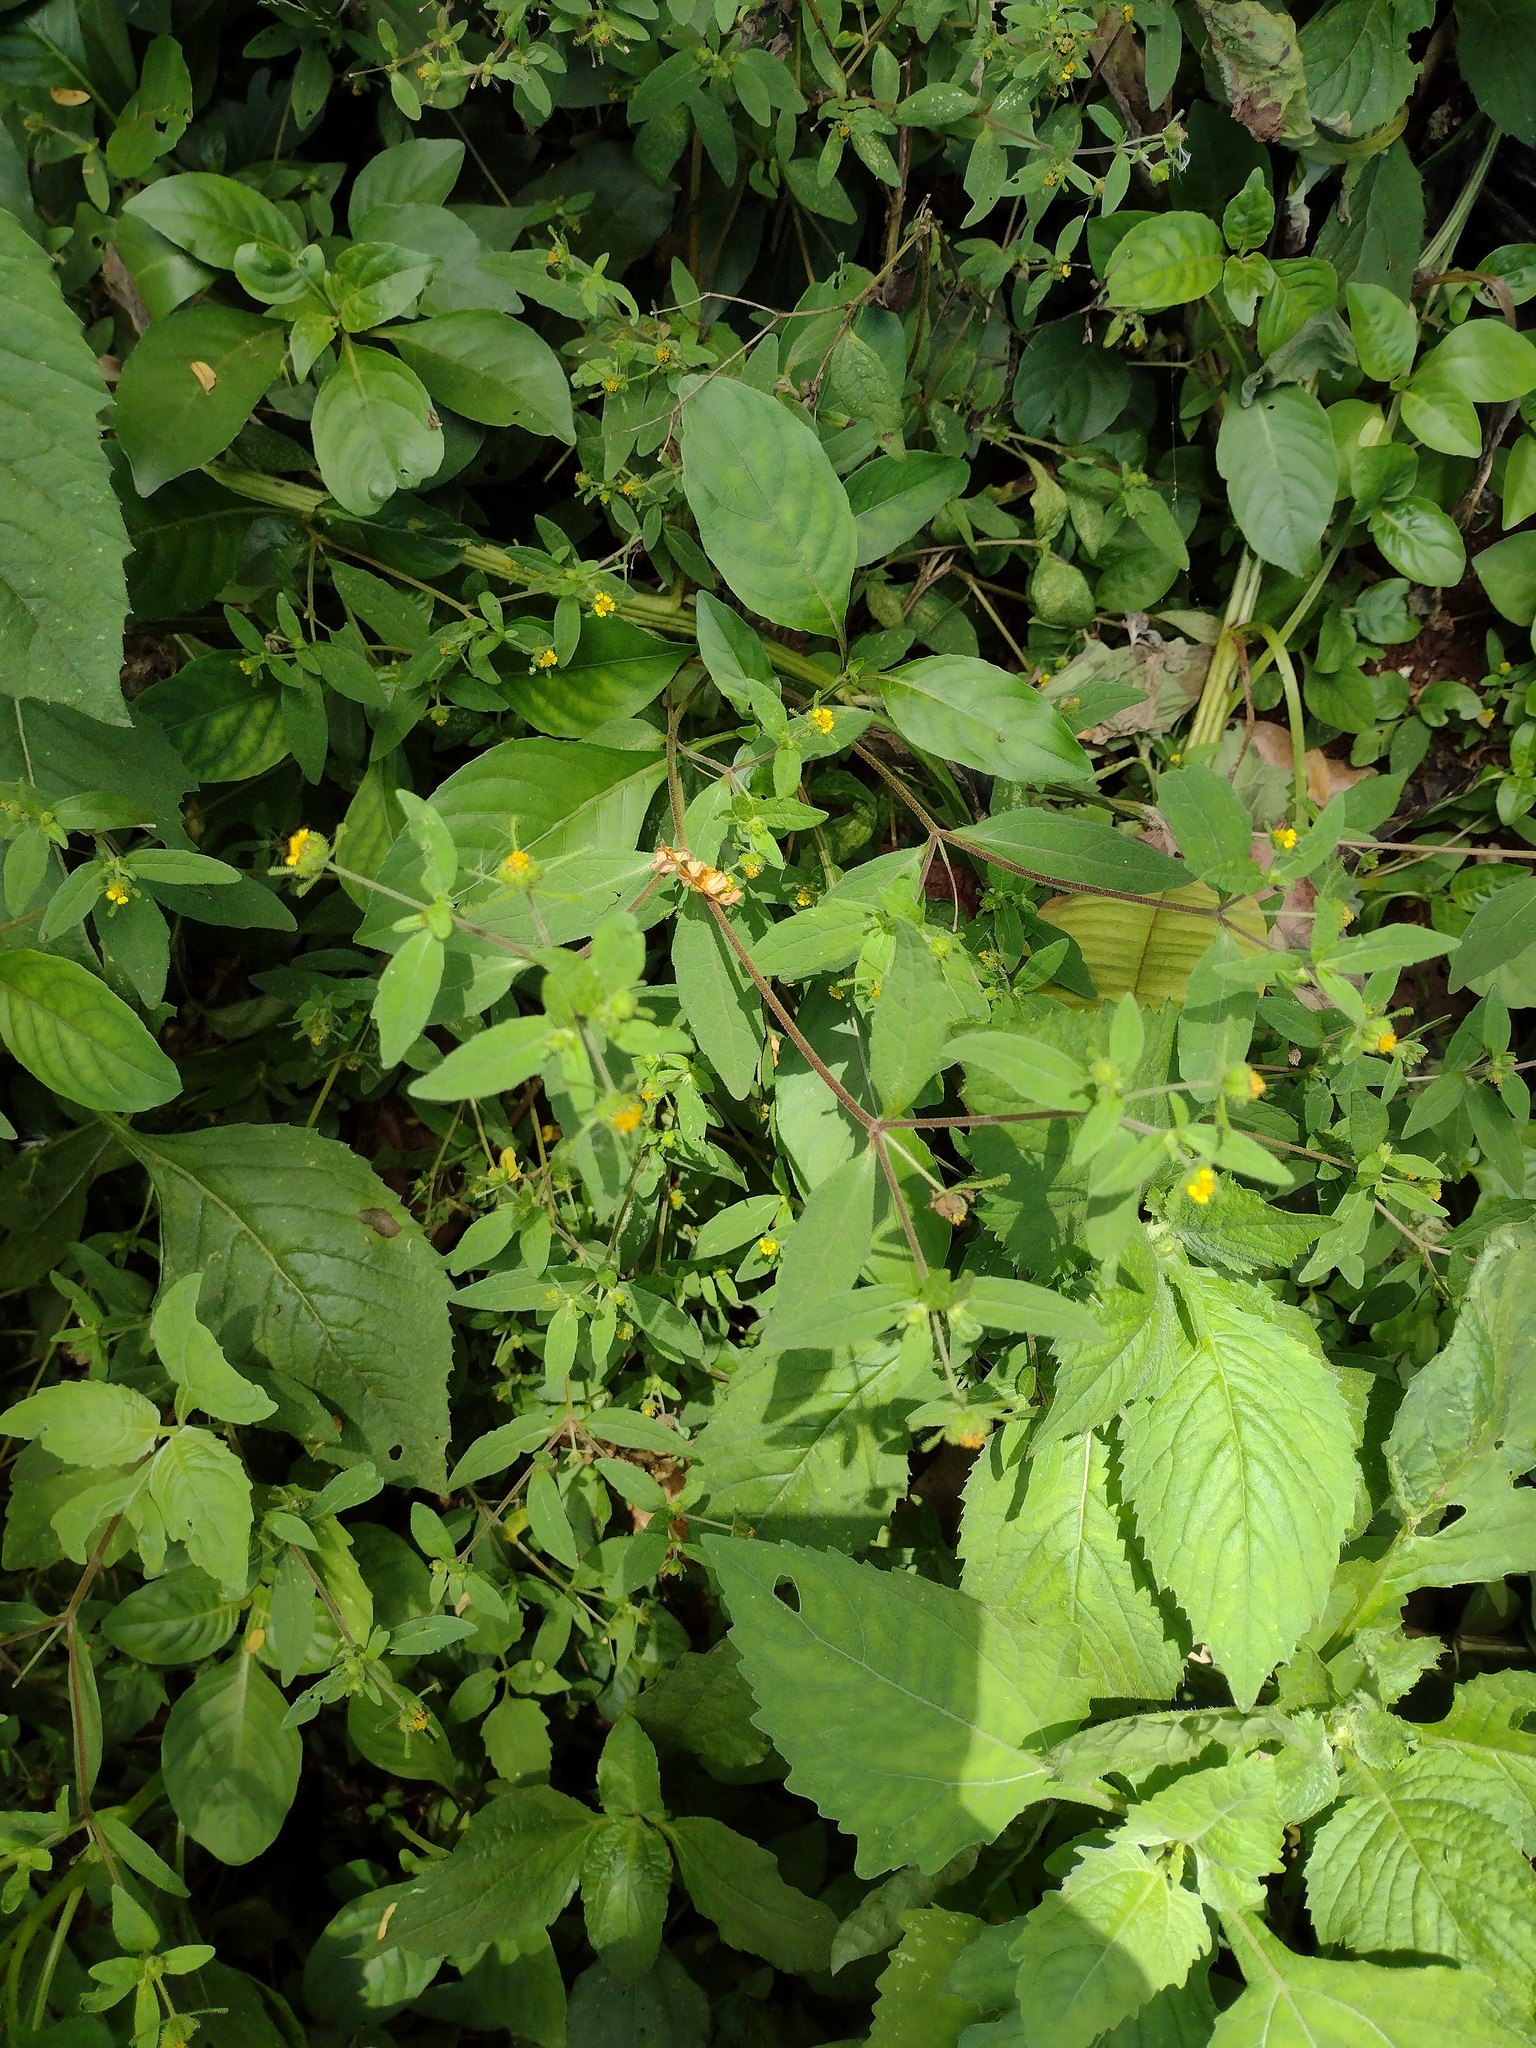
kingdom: Plantae
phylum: Tracheophyta
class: Magnoliopsida
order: Asterales
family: Asteraceae
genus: Sigesbeckia
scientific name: Sigesbeckia orientalis
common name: Eastern st paul's-wort
